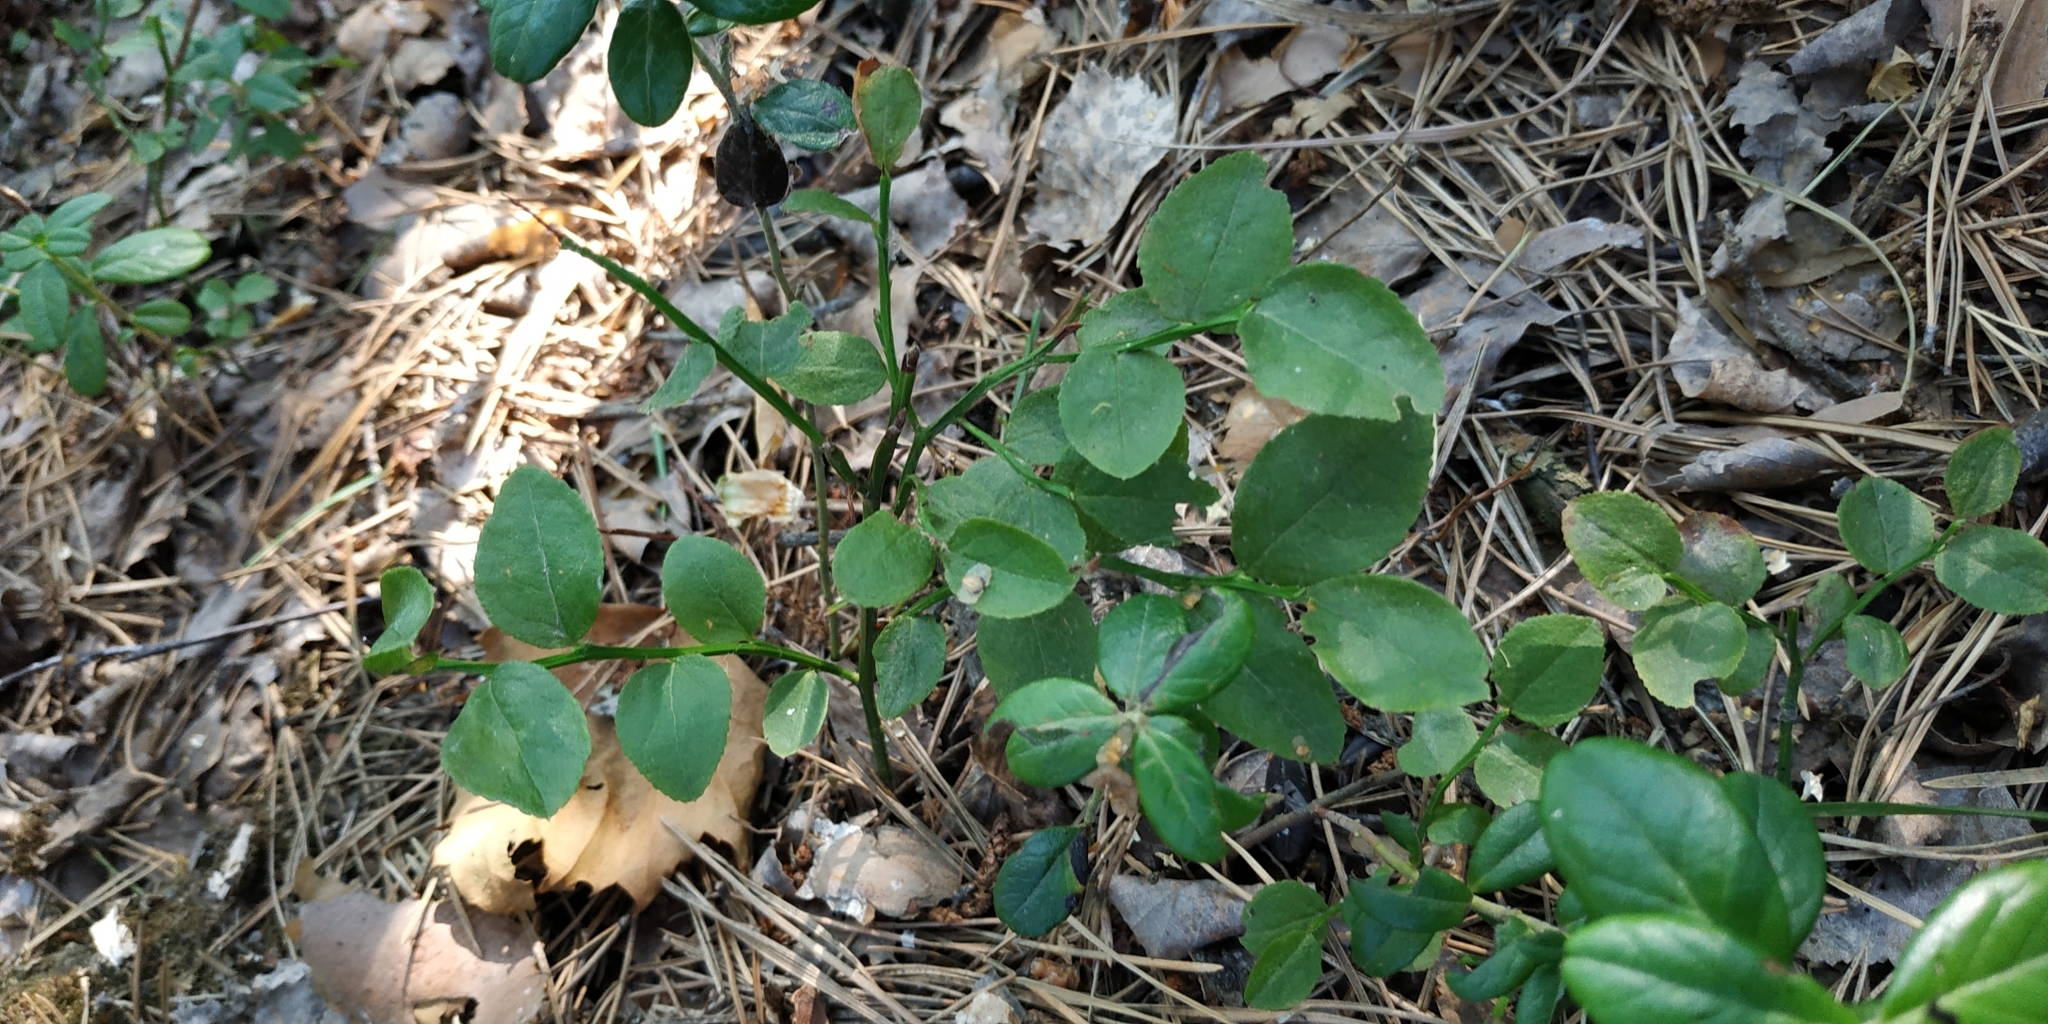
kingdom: Plantae
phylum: Tracheophyta
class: Magnoliopsida
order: Ericales
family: Ericaceae
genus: Vaccinium
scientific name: Vaccinium myrtillus
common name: Bilberry
